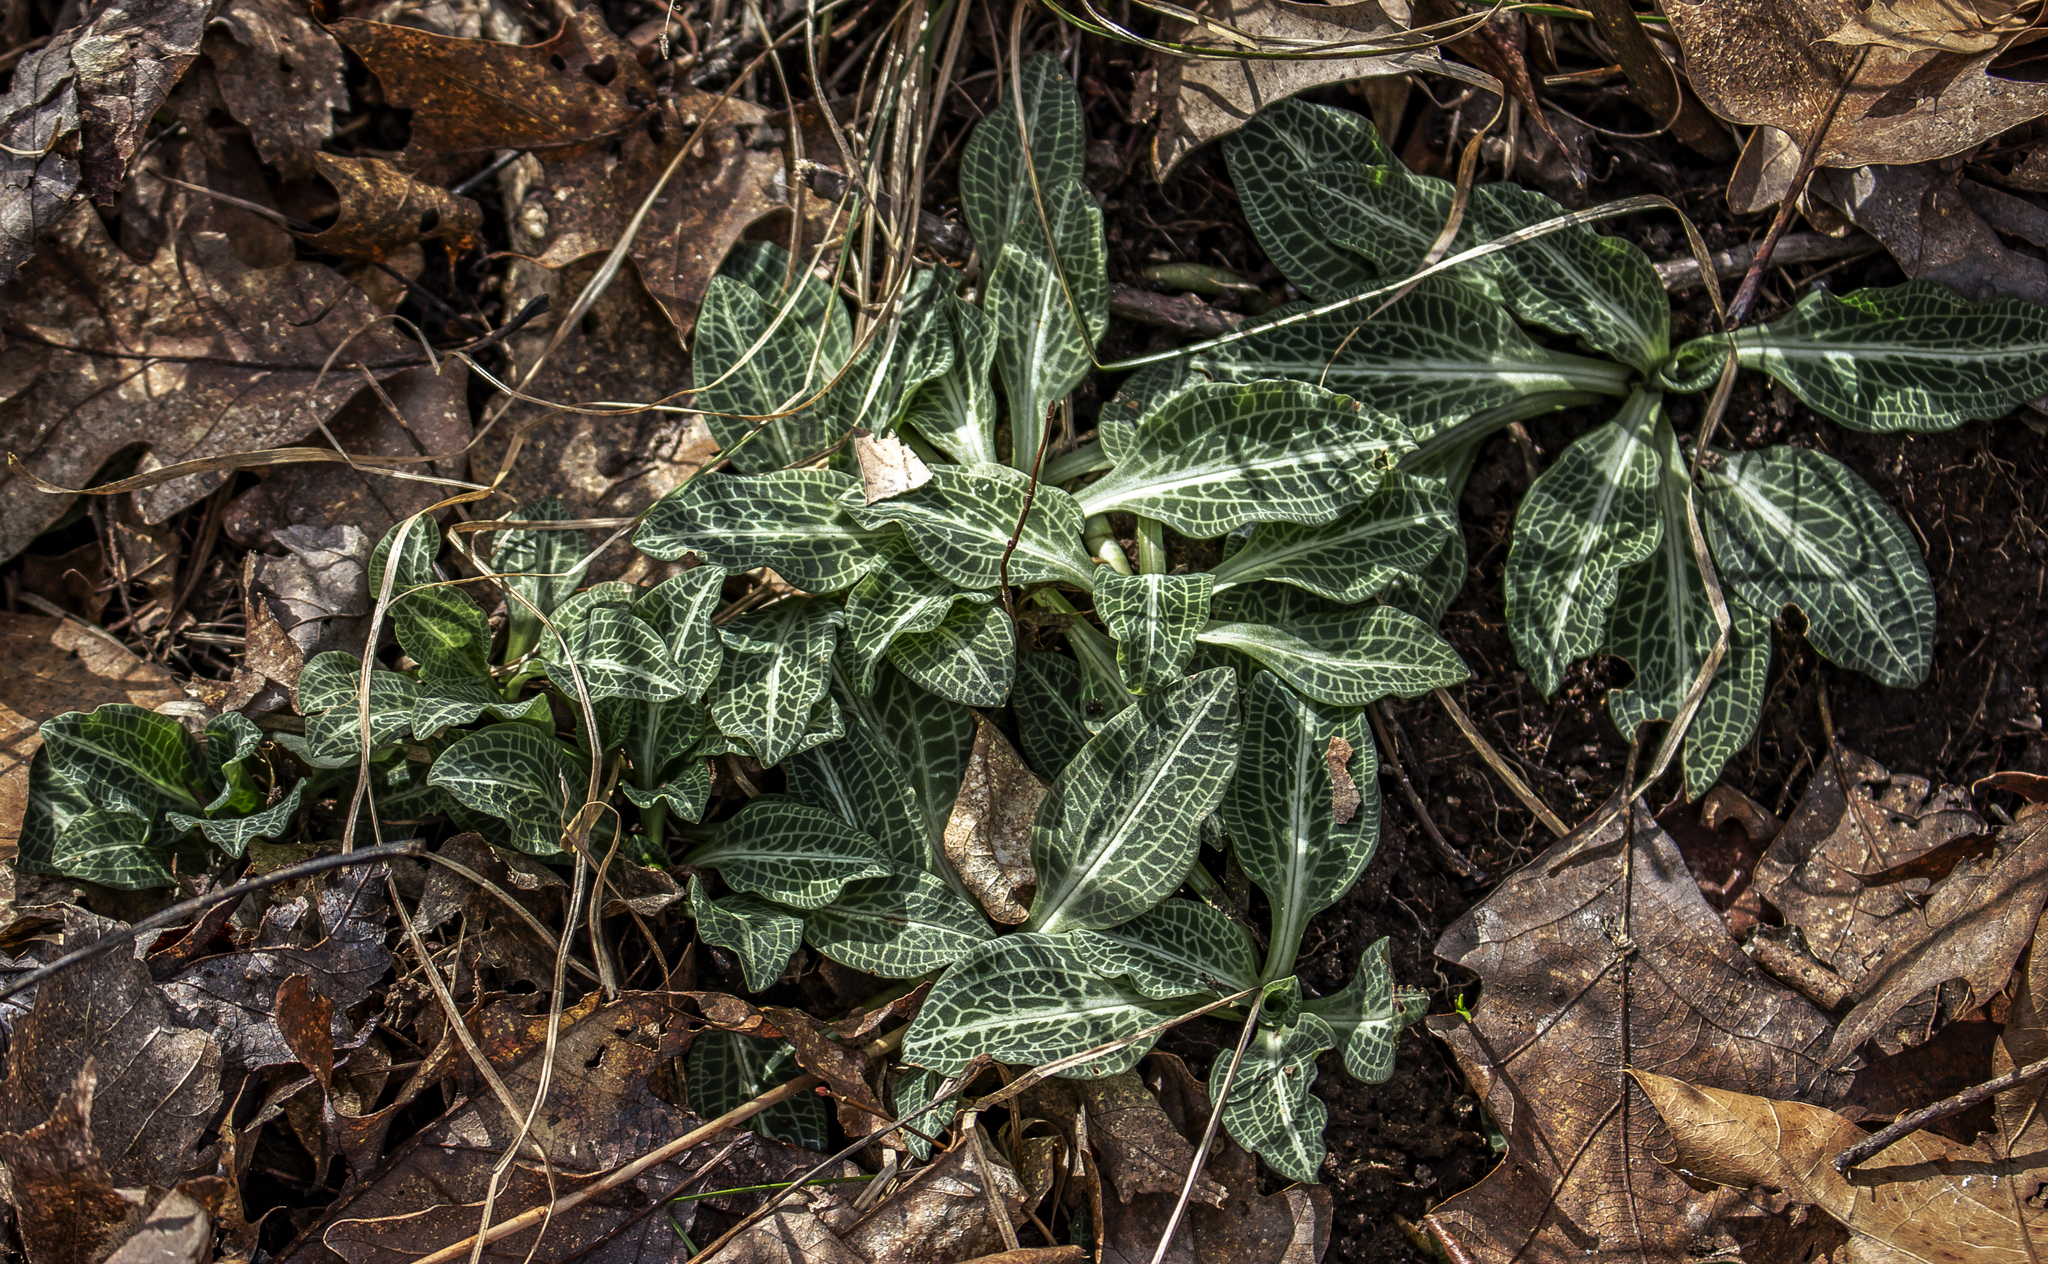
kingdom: Plantae
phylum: Tracheophyta
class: Liliopsida
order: Asparagales
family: Orchidaceae
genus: Goodyera
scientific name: Goodyera pubescens
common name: Downy rattlesnake-plantain
